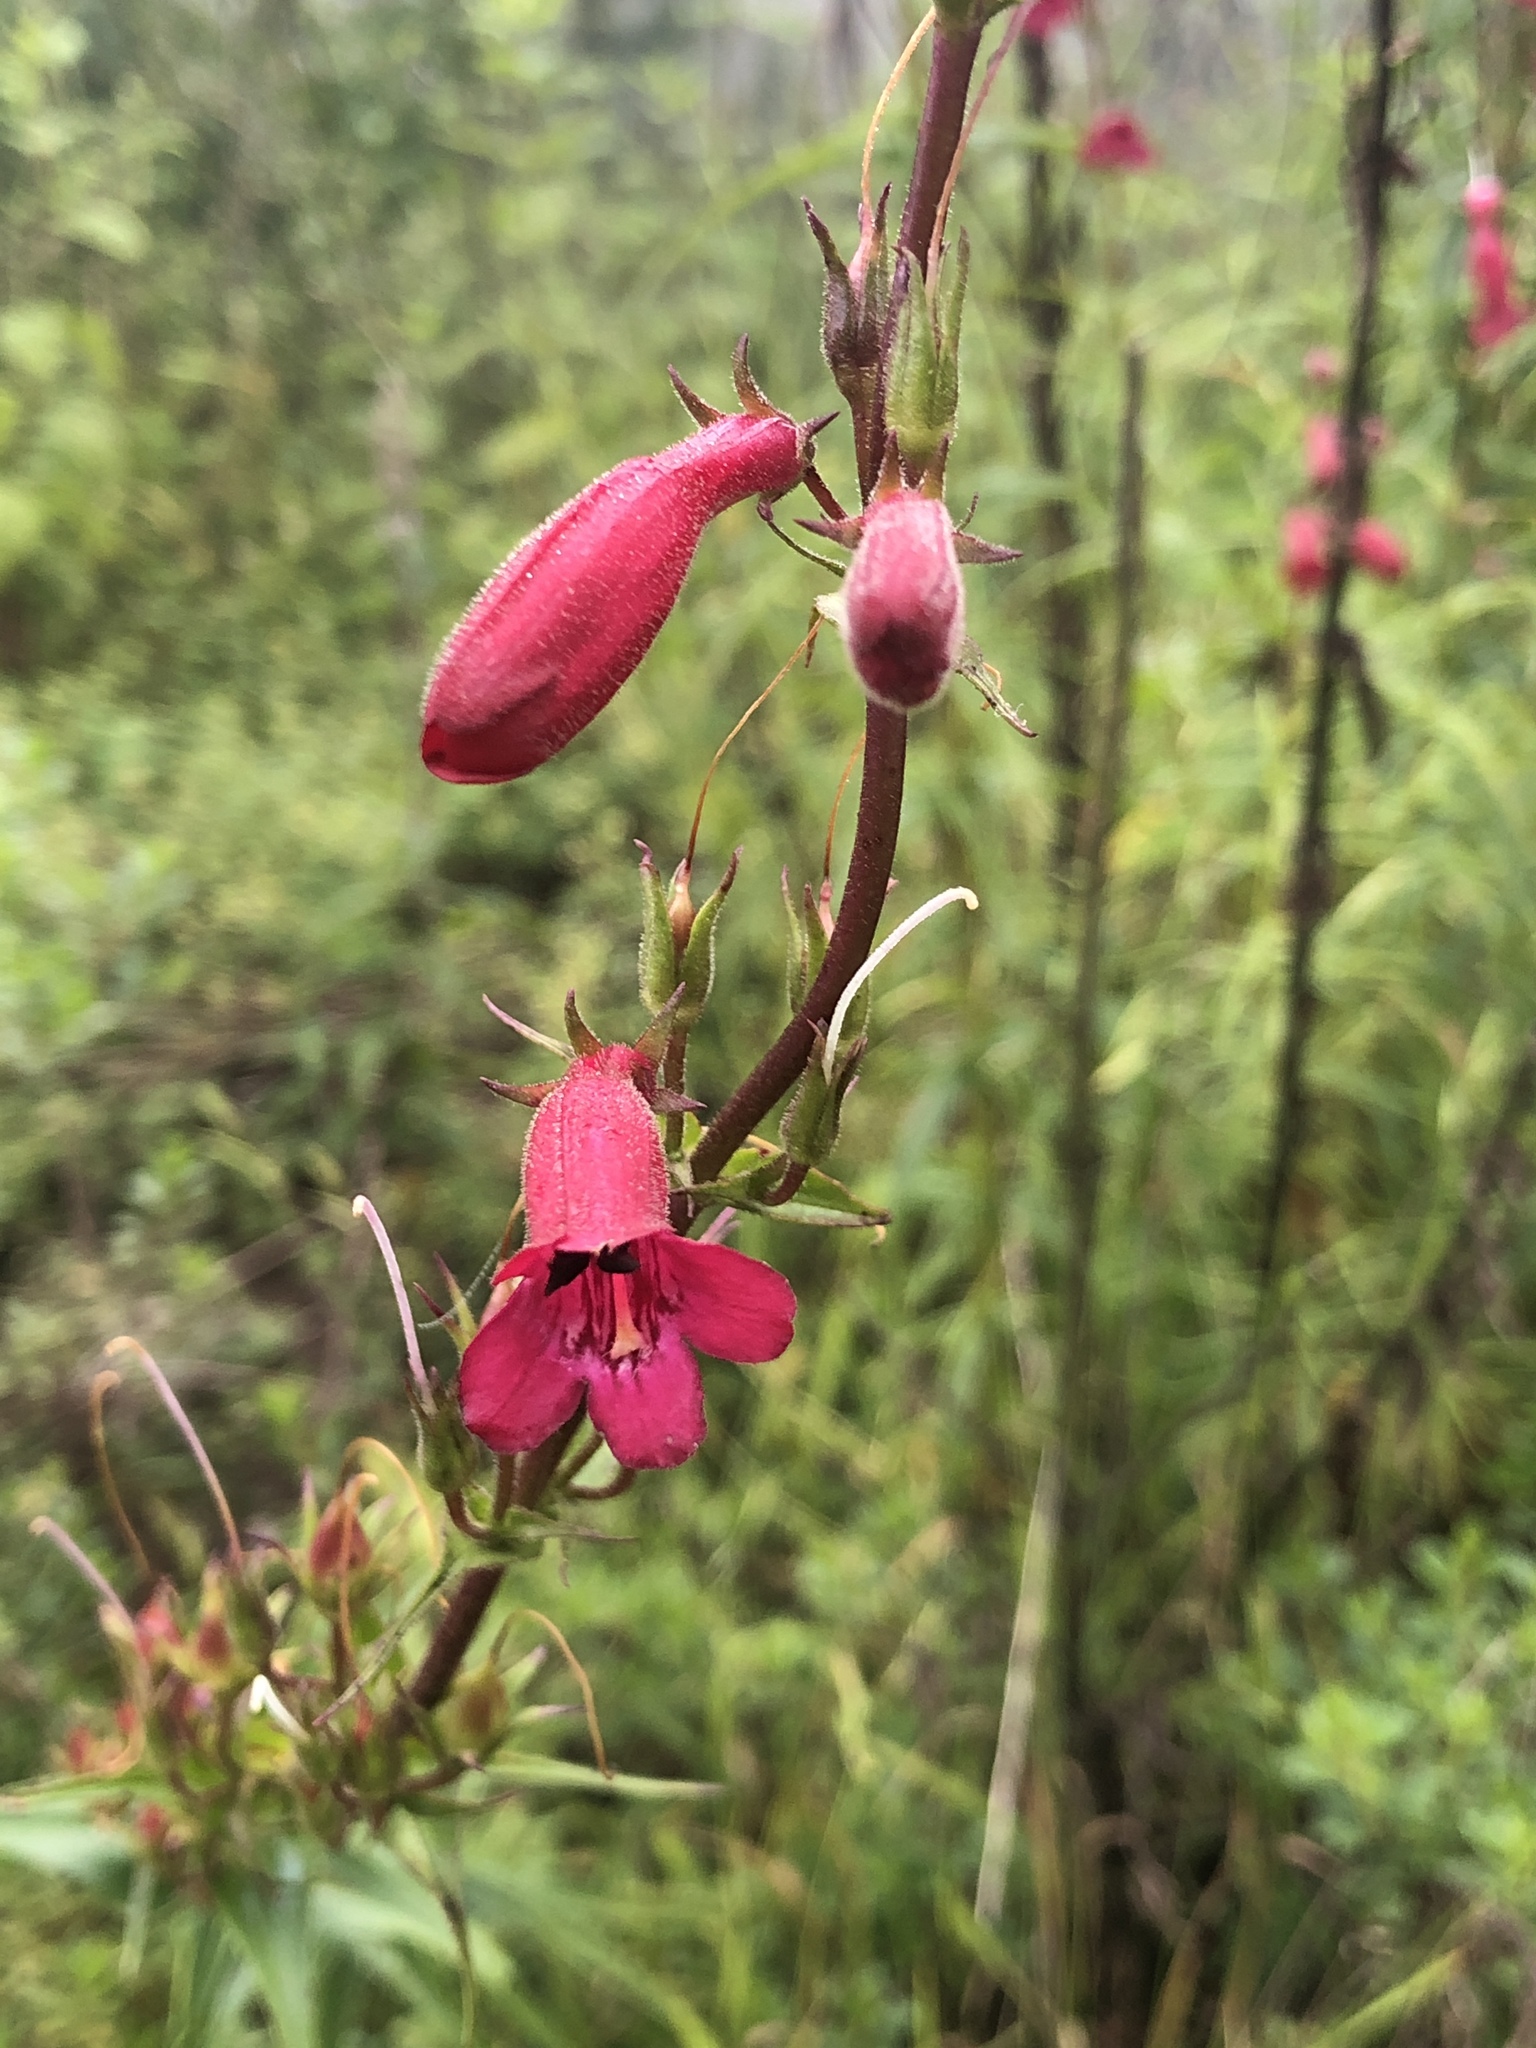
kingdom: Plantae
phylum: Tracheophyta
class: Magnoliopsida
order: Lamiales
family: Plantaginaceae
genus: Penstemon
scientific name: Penstemon roseus
